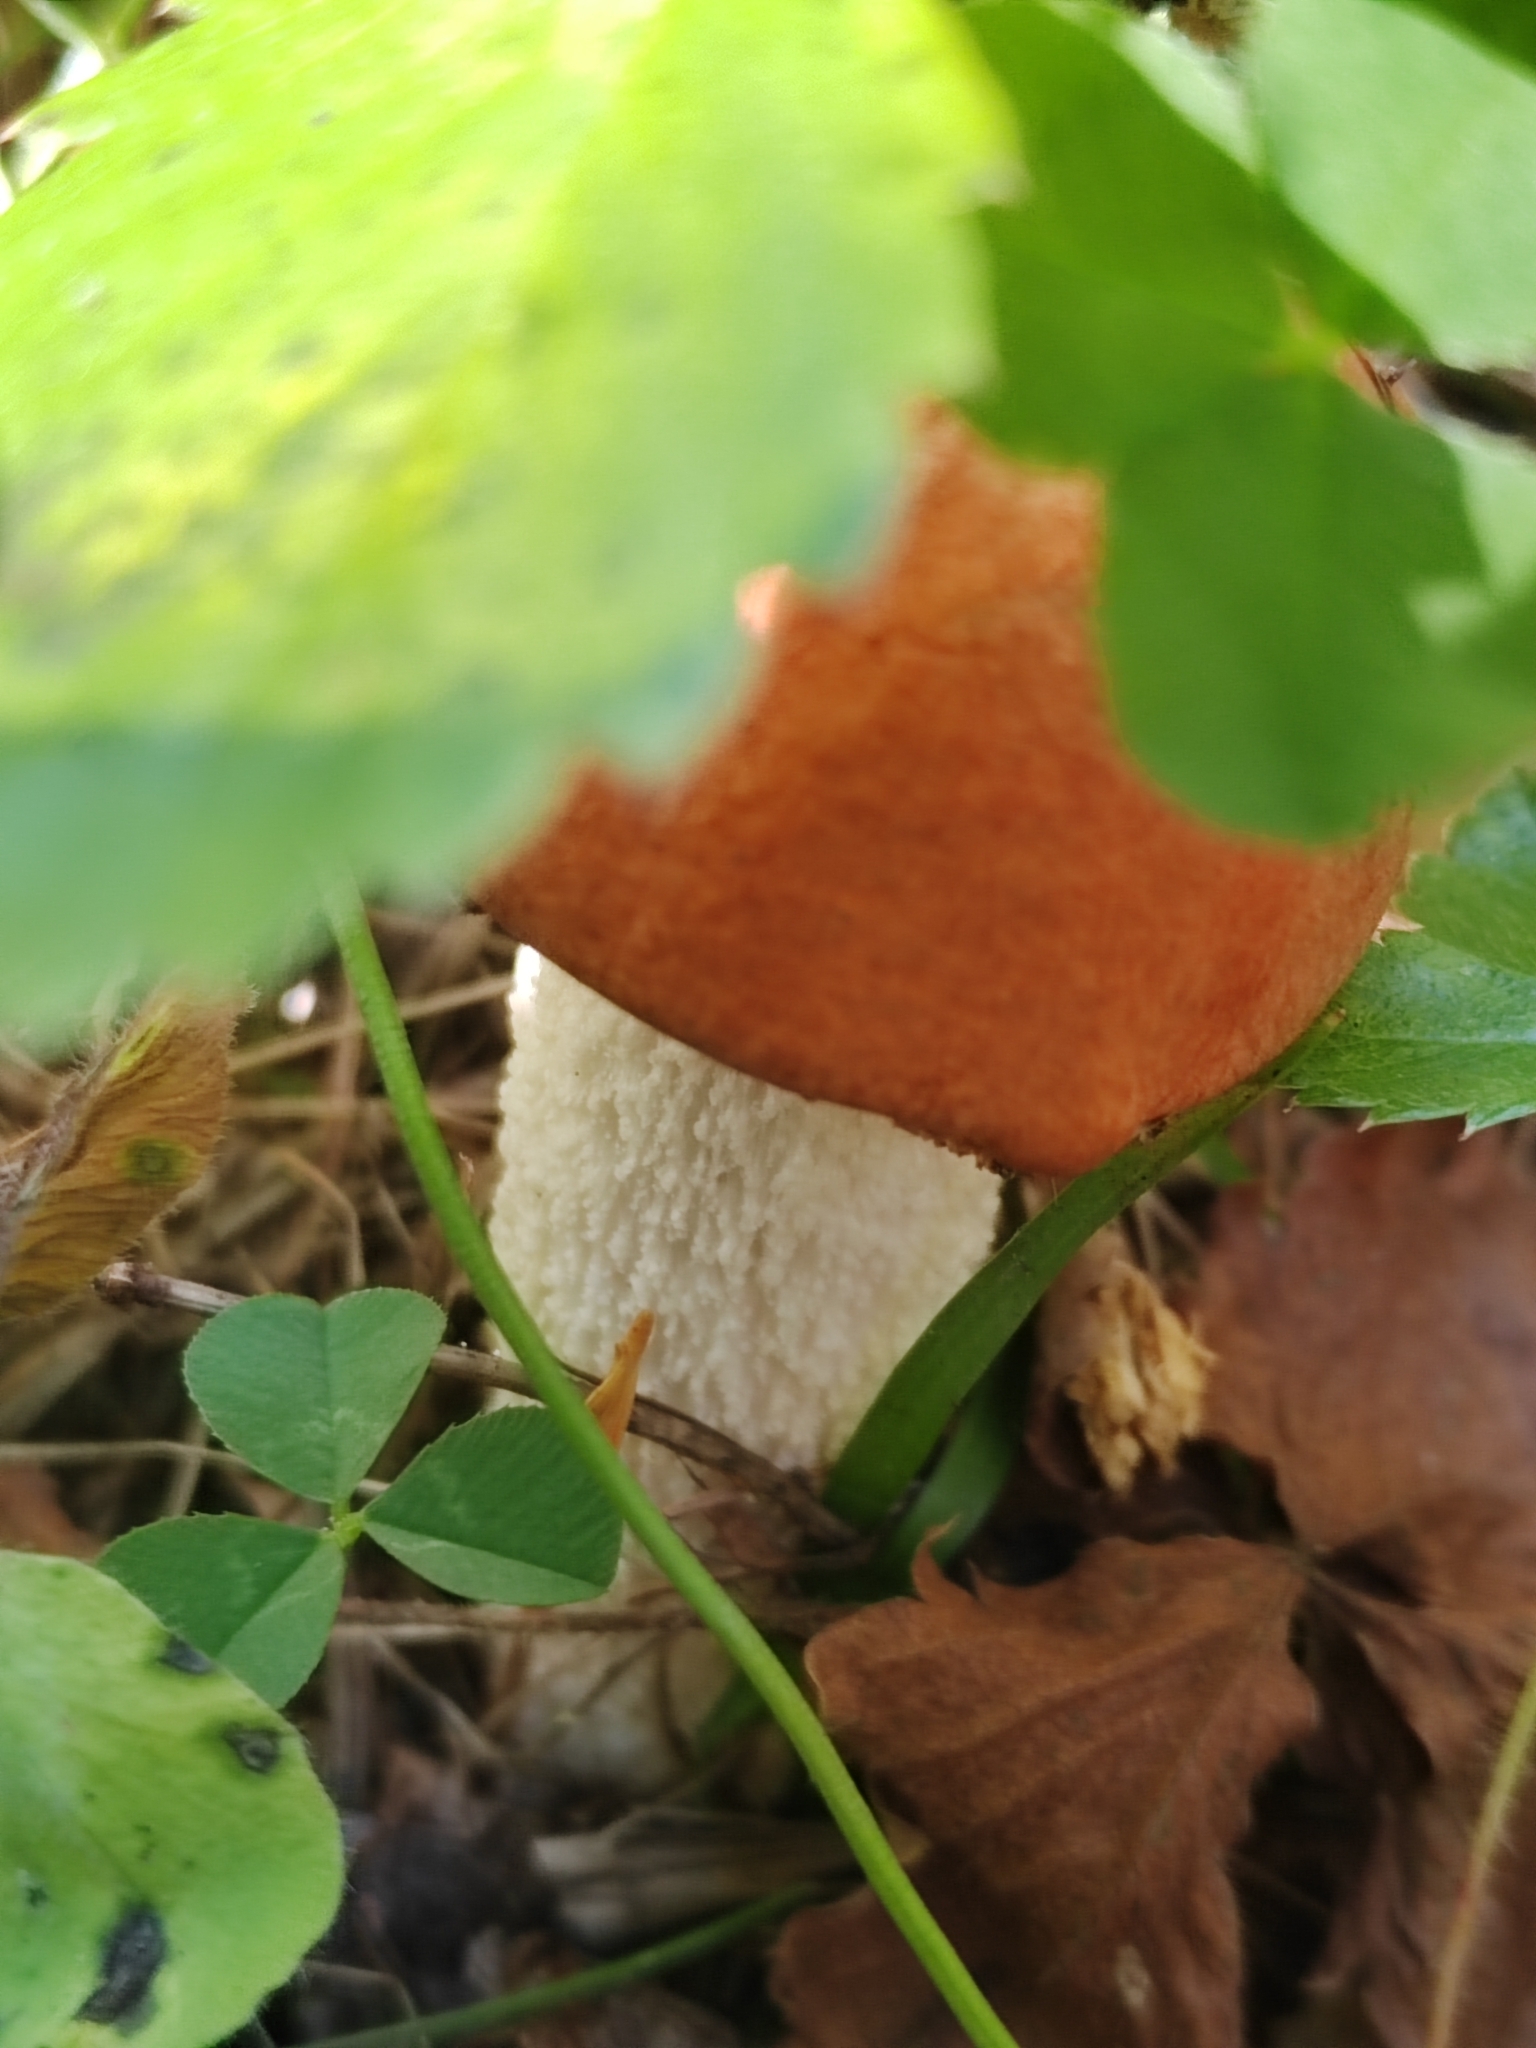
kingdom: Fungi
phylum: Basidiomycota
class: Agaricomycetes
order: Boletales
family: Boletaceae
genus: Leccinum
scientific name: Leccinum albostipitatum
